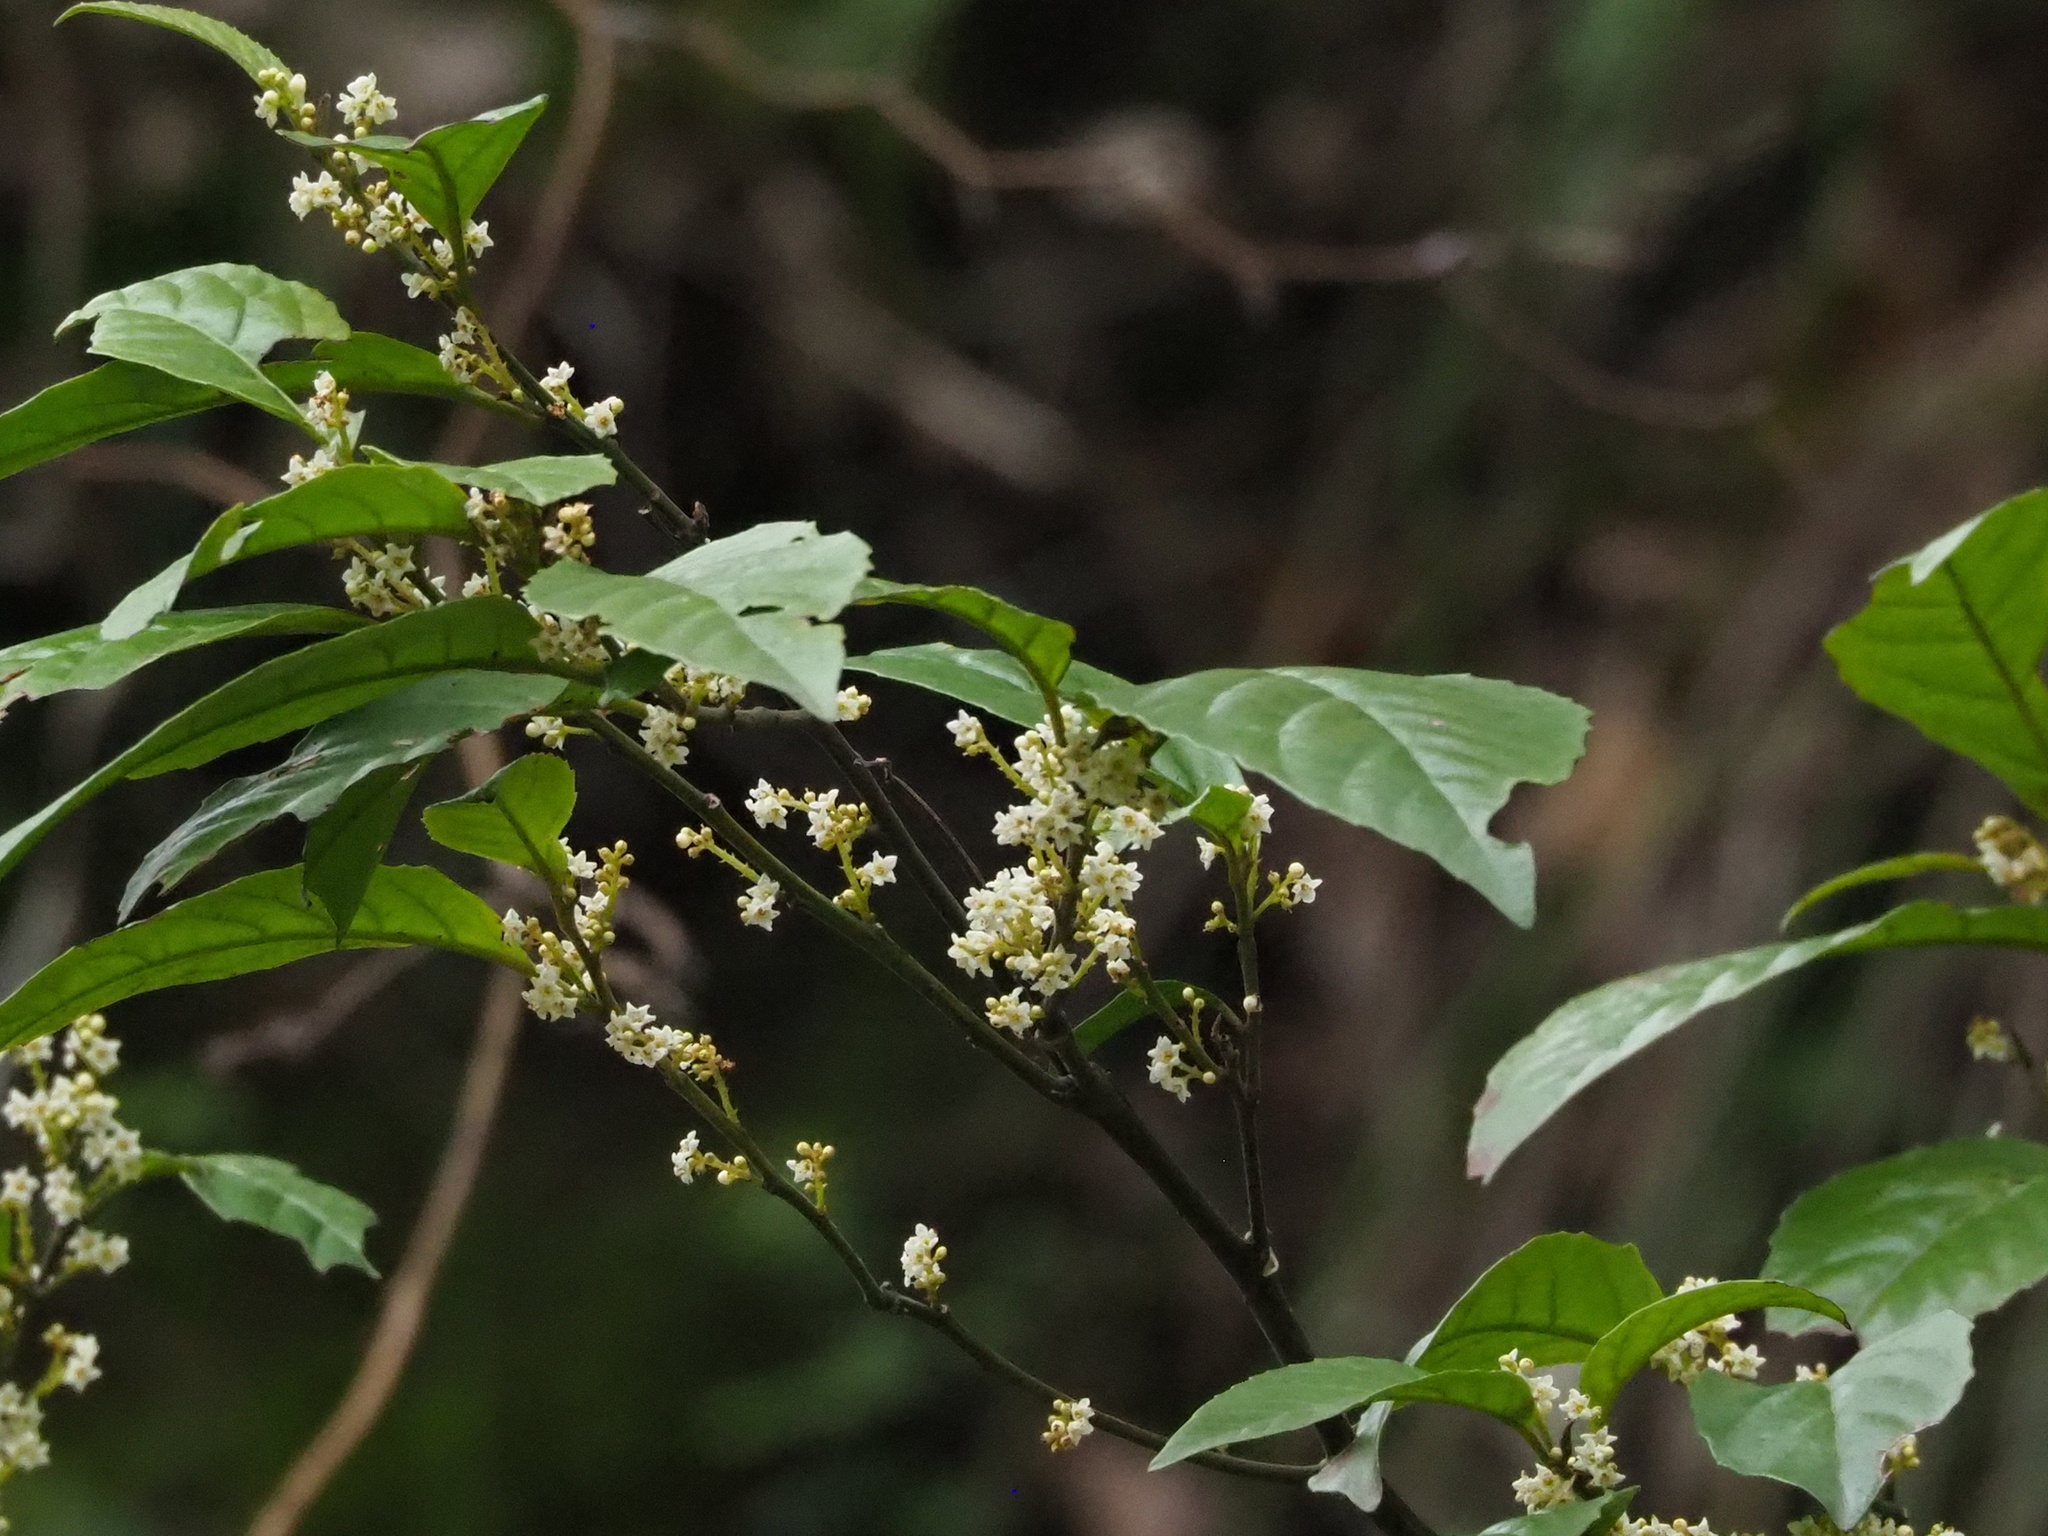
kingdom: Plantae
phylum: Tracheophyta
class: Magnoliopsida
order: Ericales
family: Primulaceae
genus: Maesa
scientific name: Maesa perlaria
